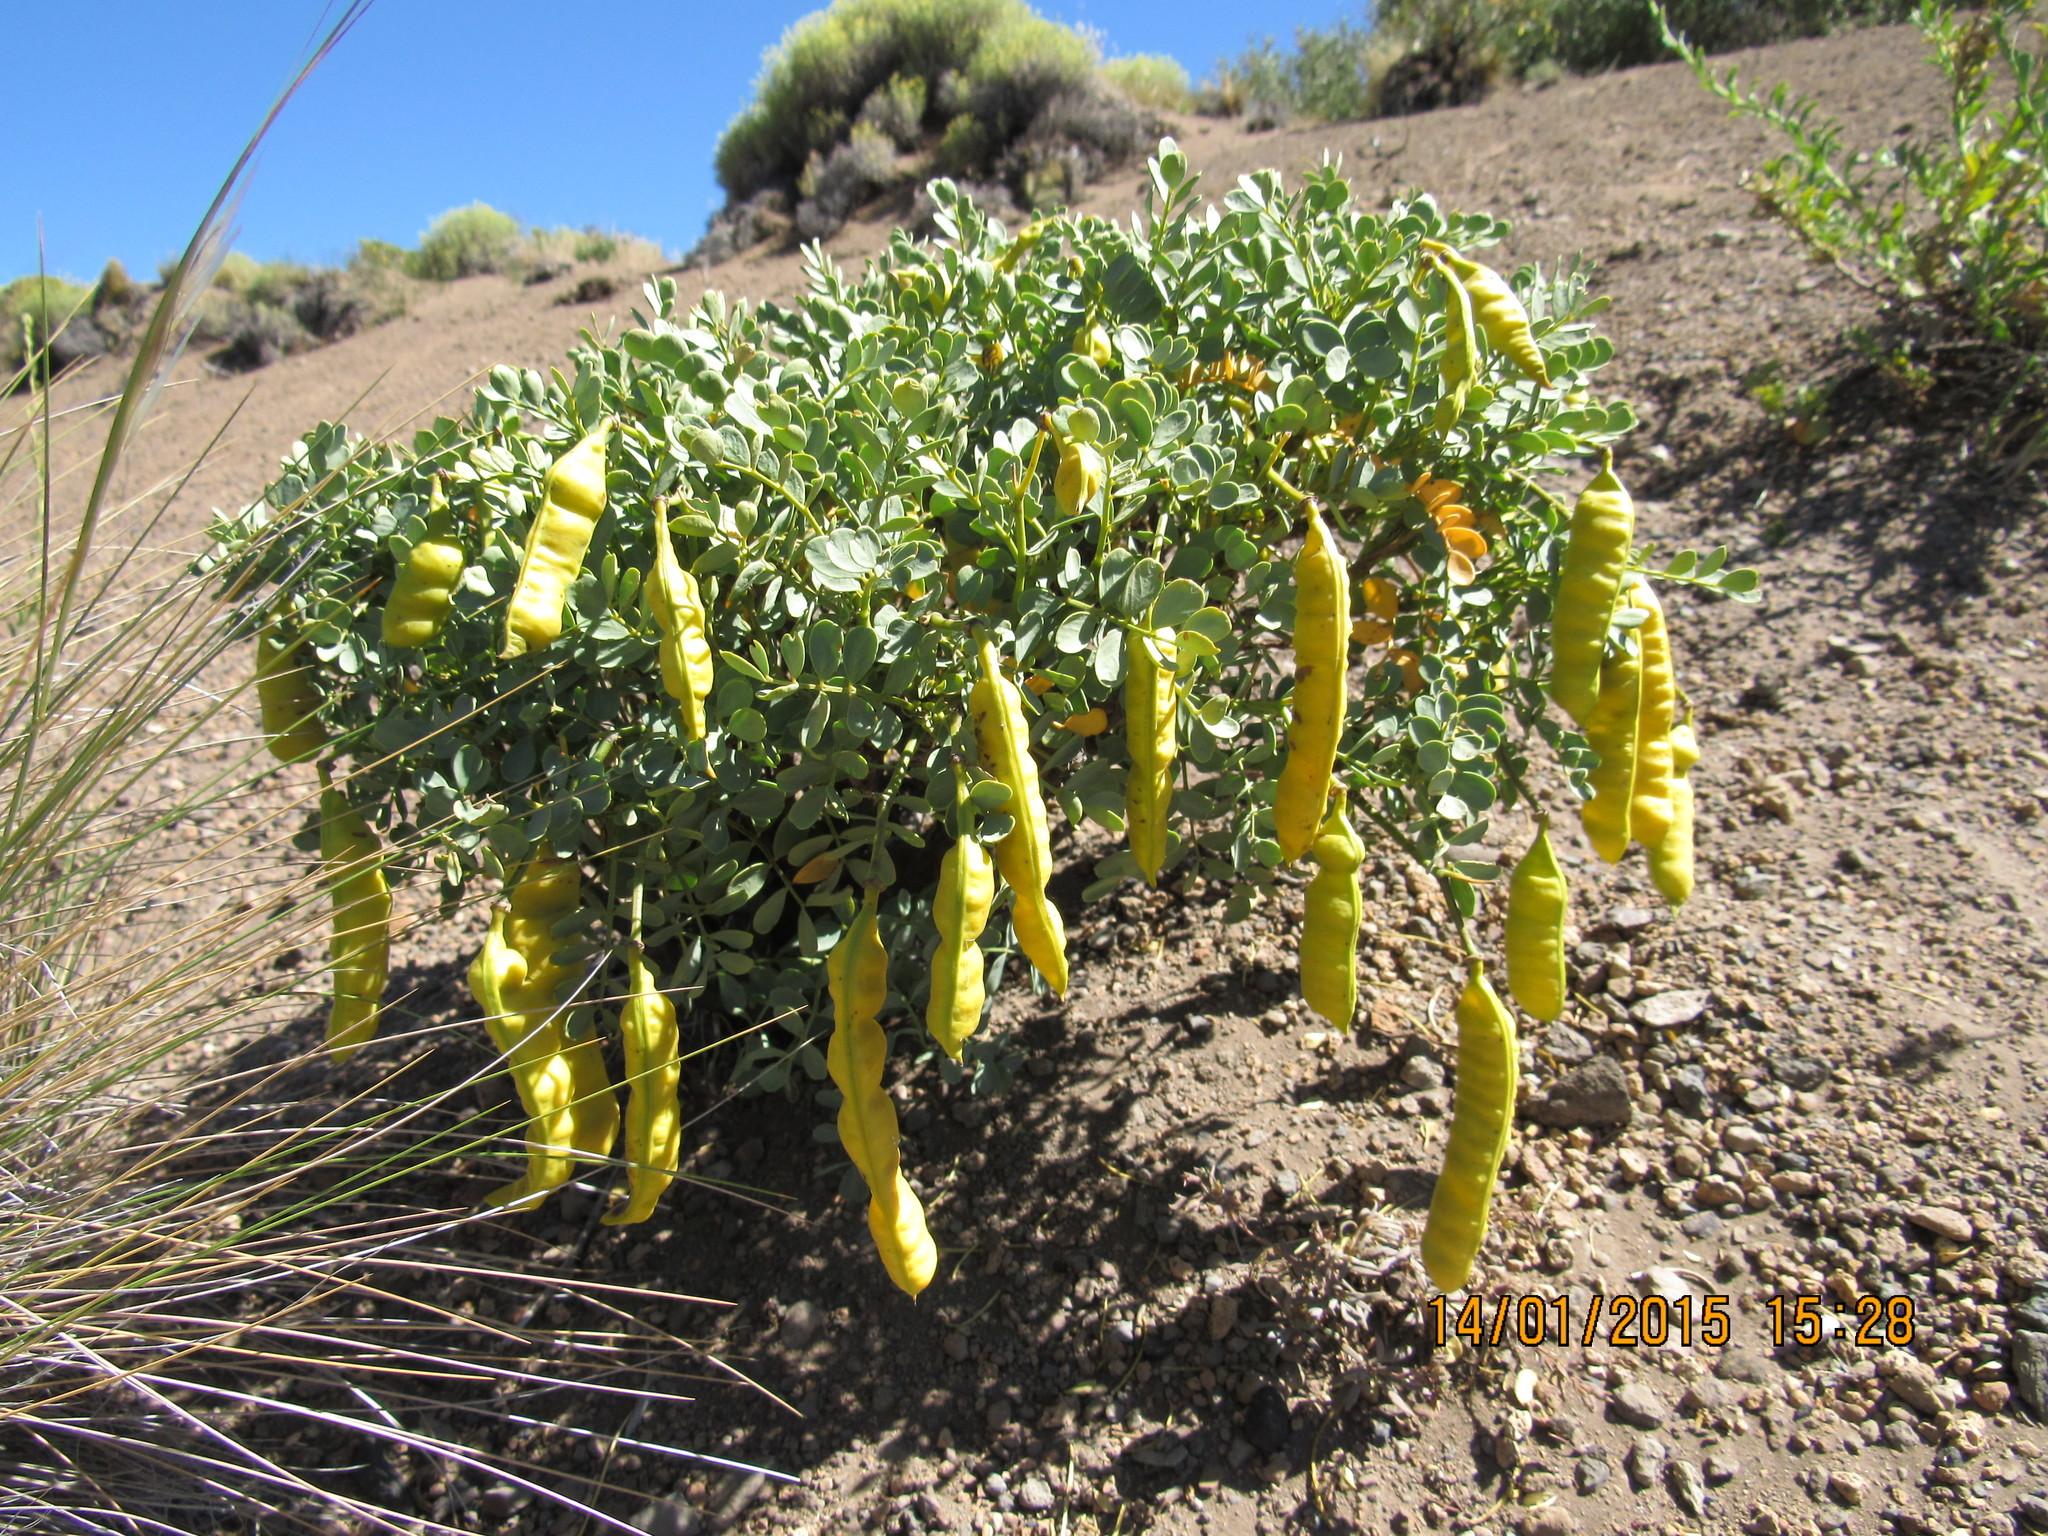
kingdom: Plantae
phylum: Tracheophyta
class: Magnoliopsida
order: Fabales
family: Fabaceae
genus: Senna
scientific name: Senna arnottiana
